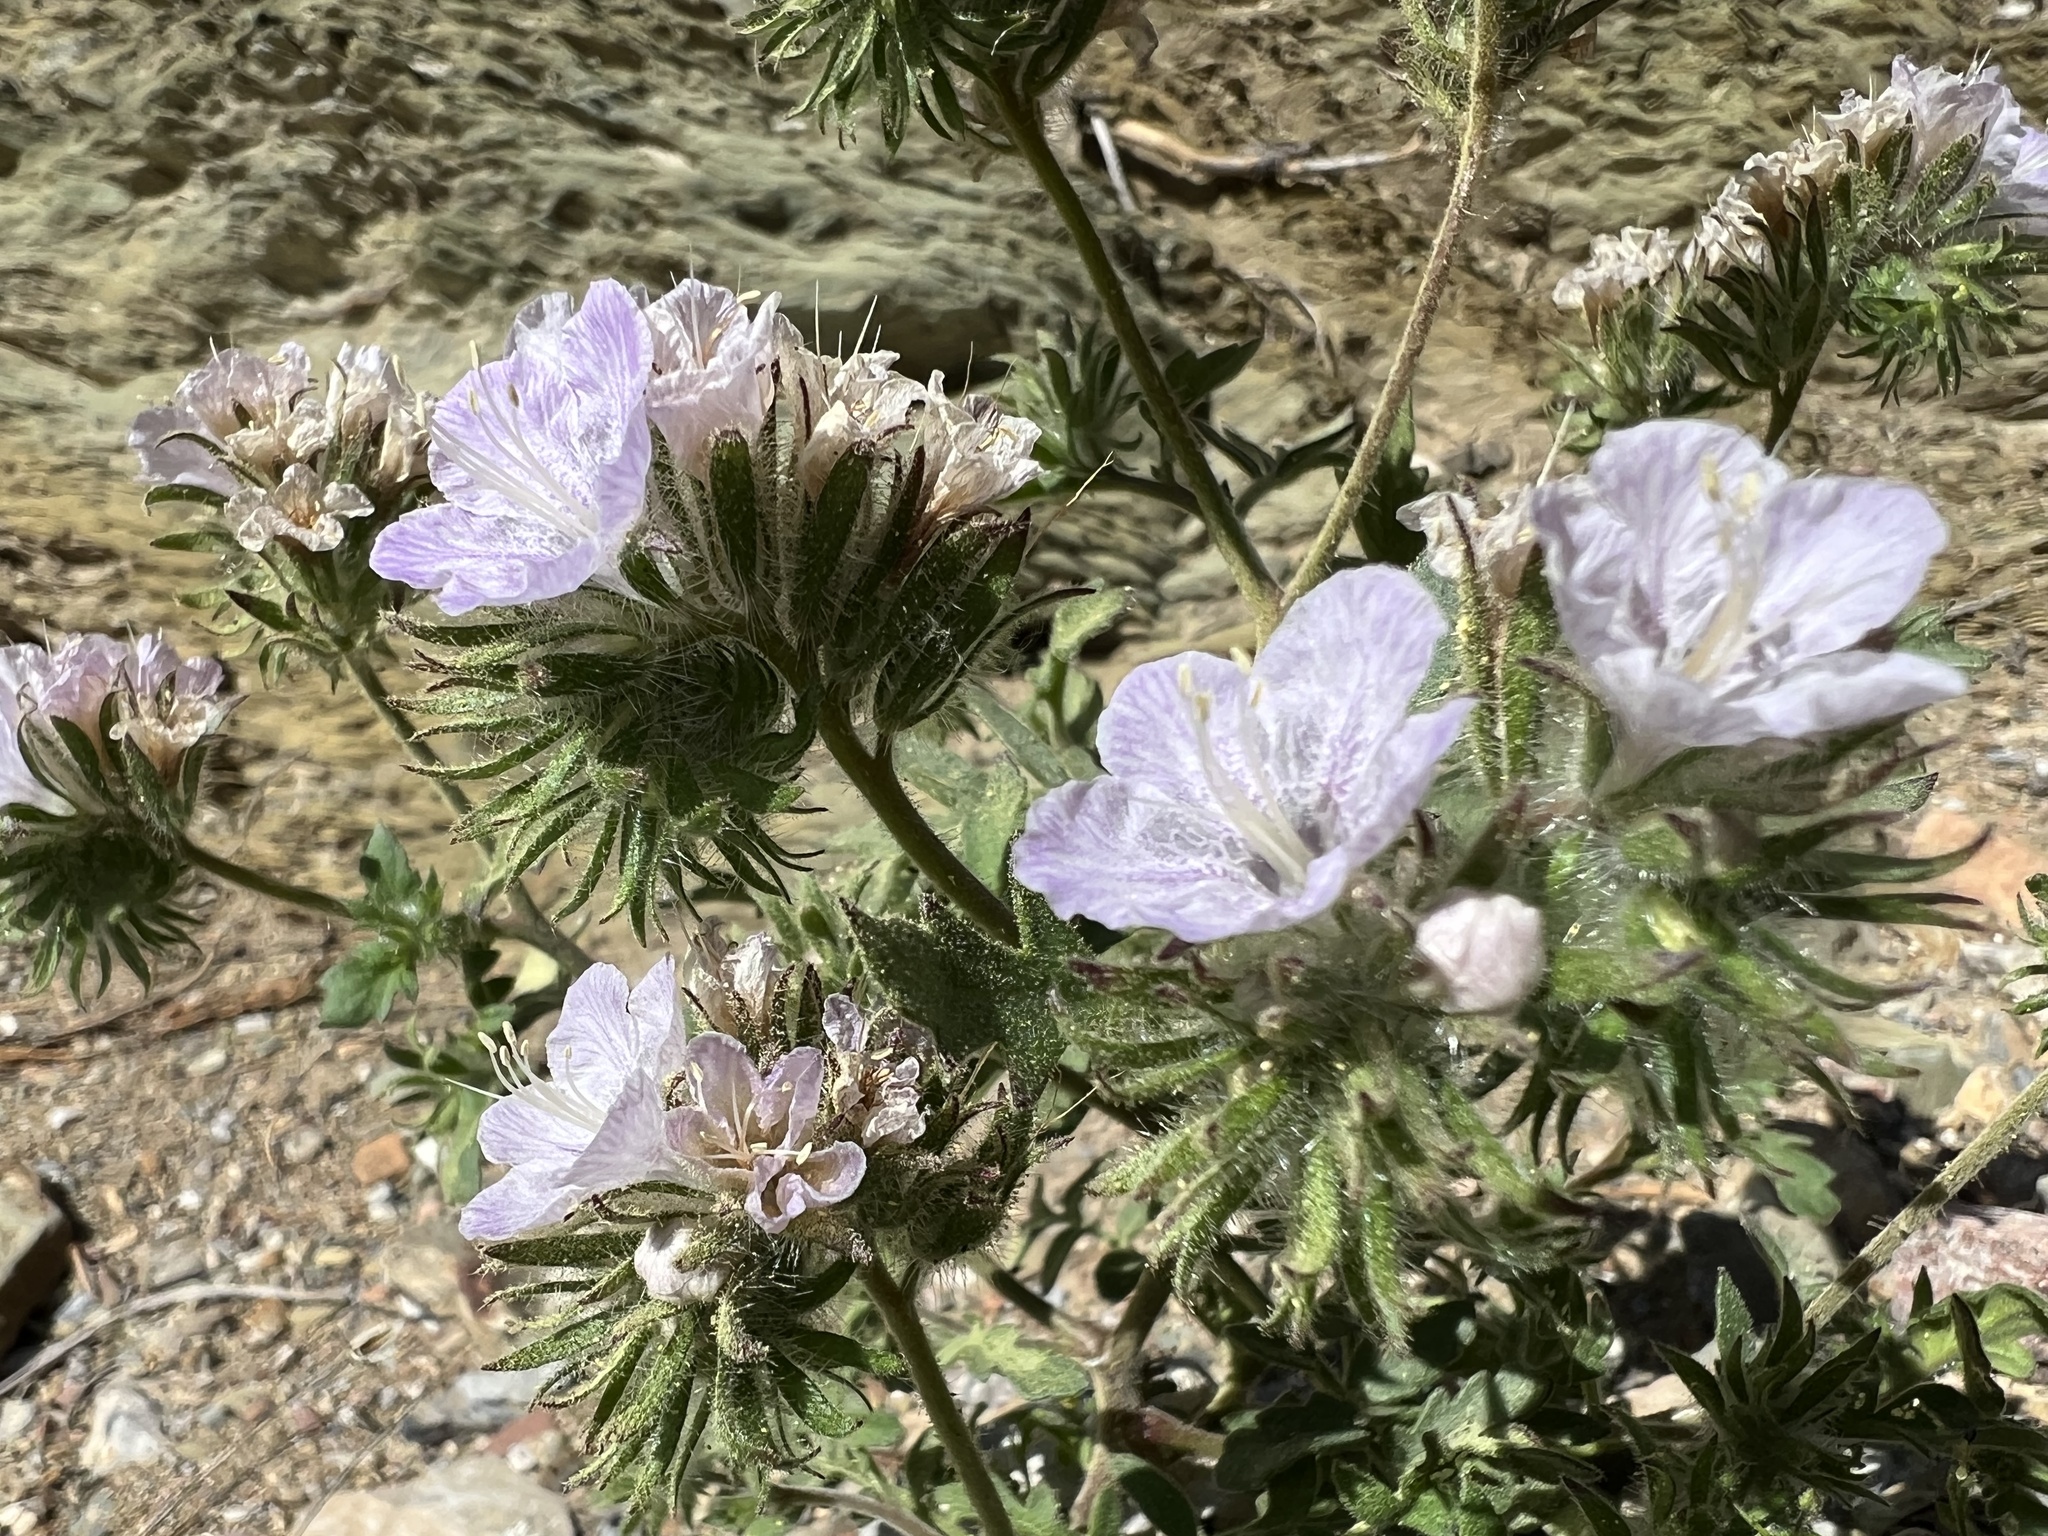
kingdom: Plantae
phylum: Tracheophyta
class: Magnoliopsida
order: Boraginales
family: Hydrophyllaceae
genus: Phacelia
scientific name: Phacelia vallis-mortae
